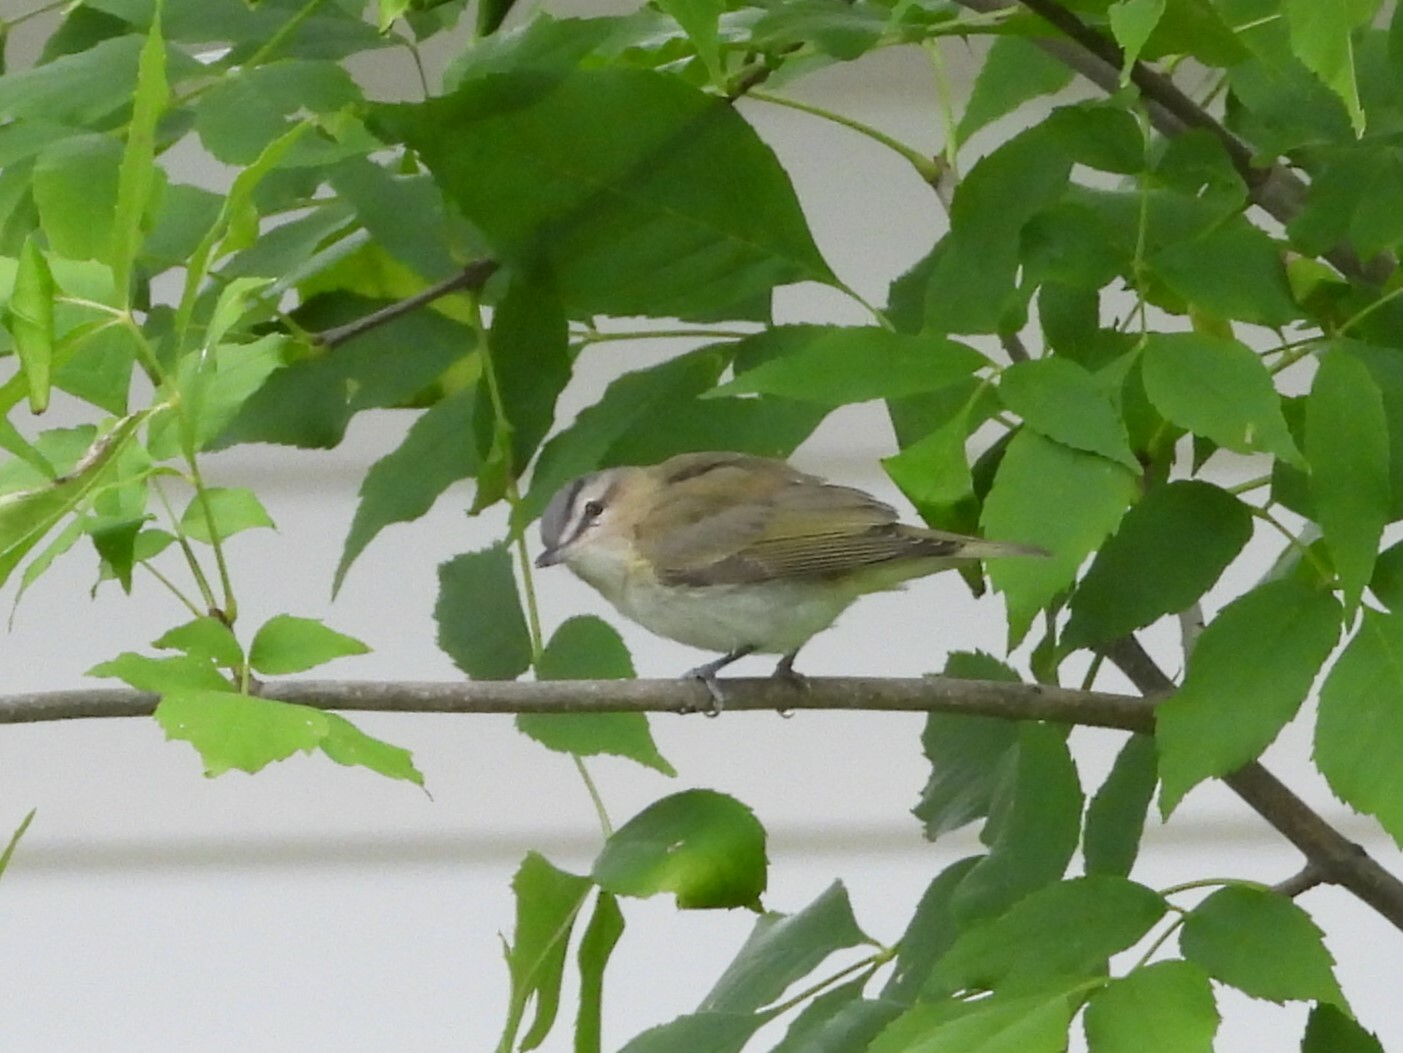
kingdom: Animalia
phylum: Chordata
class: Aves
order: Passeriformes
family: Vireonidae
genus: Vireo
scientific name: Vireo olivaceus
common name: Red-eyed vireo
